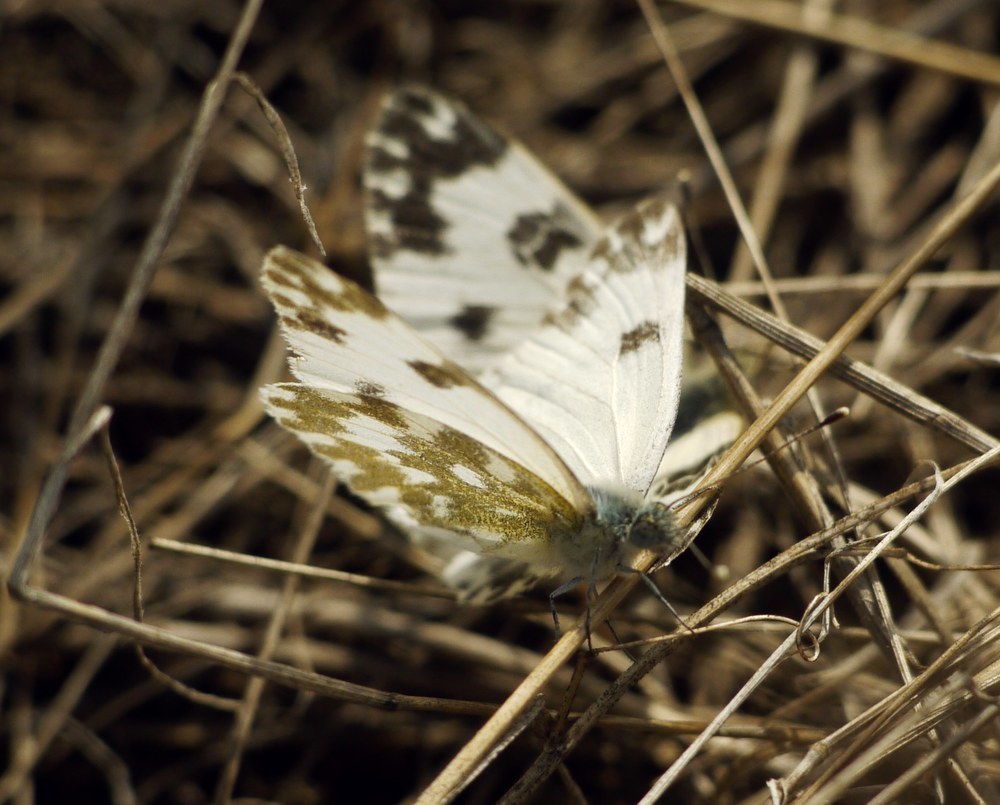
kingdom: Animalia
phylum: Arthropoda
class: Insecta
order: Lepidoptera
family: Pieridae
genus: Pontia
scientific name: Pontia edusa
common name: Eastern bath white
